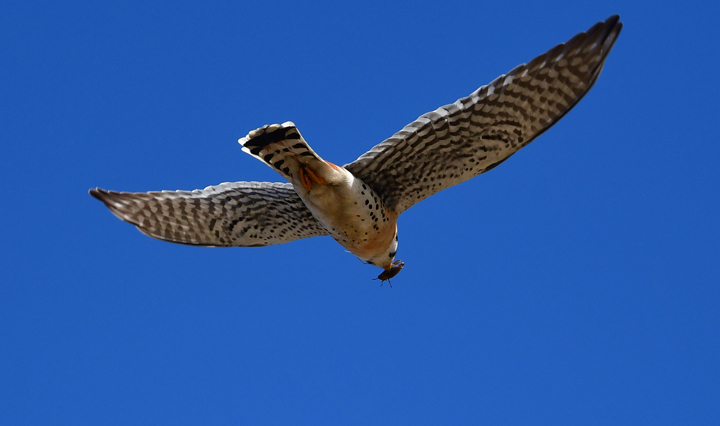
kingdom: Animalia
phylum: Chordata
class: Aves
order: Falconiformes
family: Falconidae
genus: Falco
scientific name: Falco sparverius
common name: American kestrel
